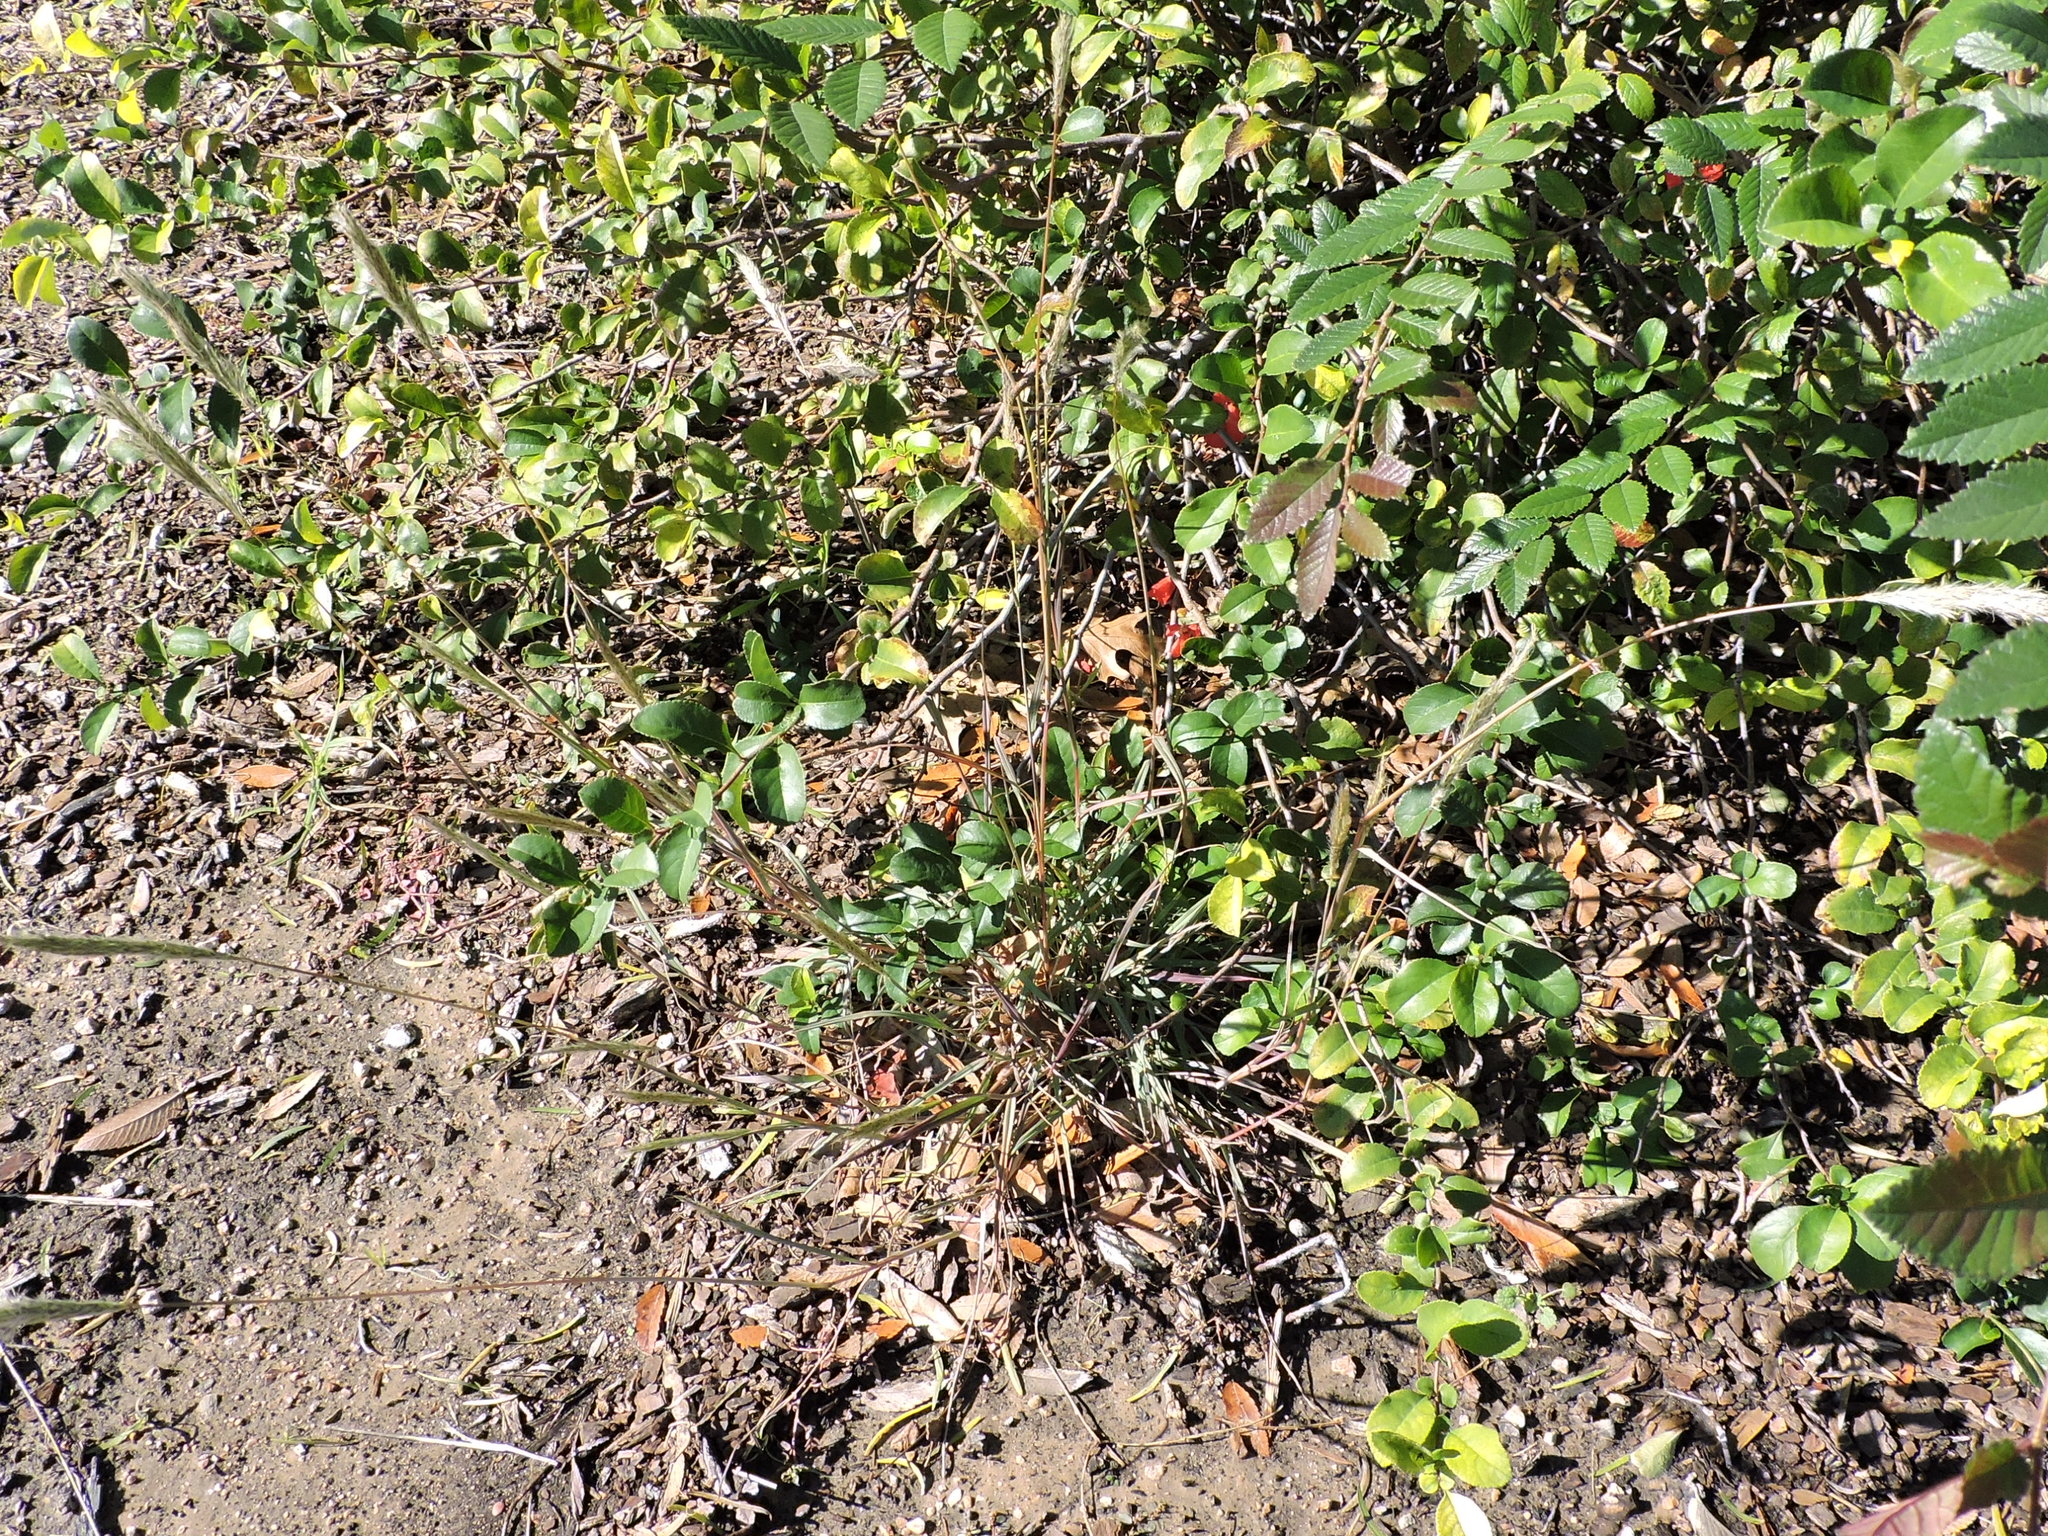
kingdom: Plantae
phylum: Tracheophyta
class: Liliopsida
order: Poales
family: Poaceae
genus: Bothriochloa
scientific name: Bothriochloa torreyana
